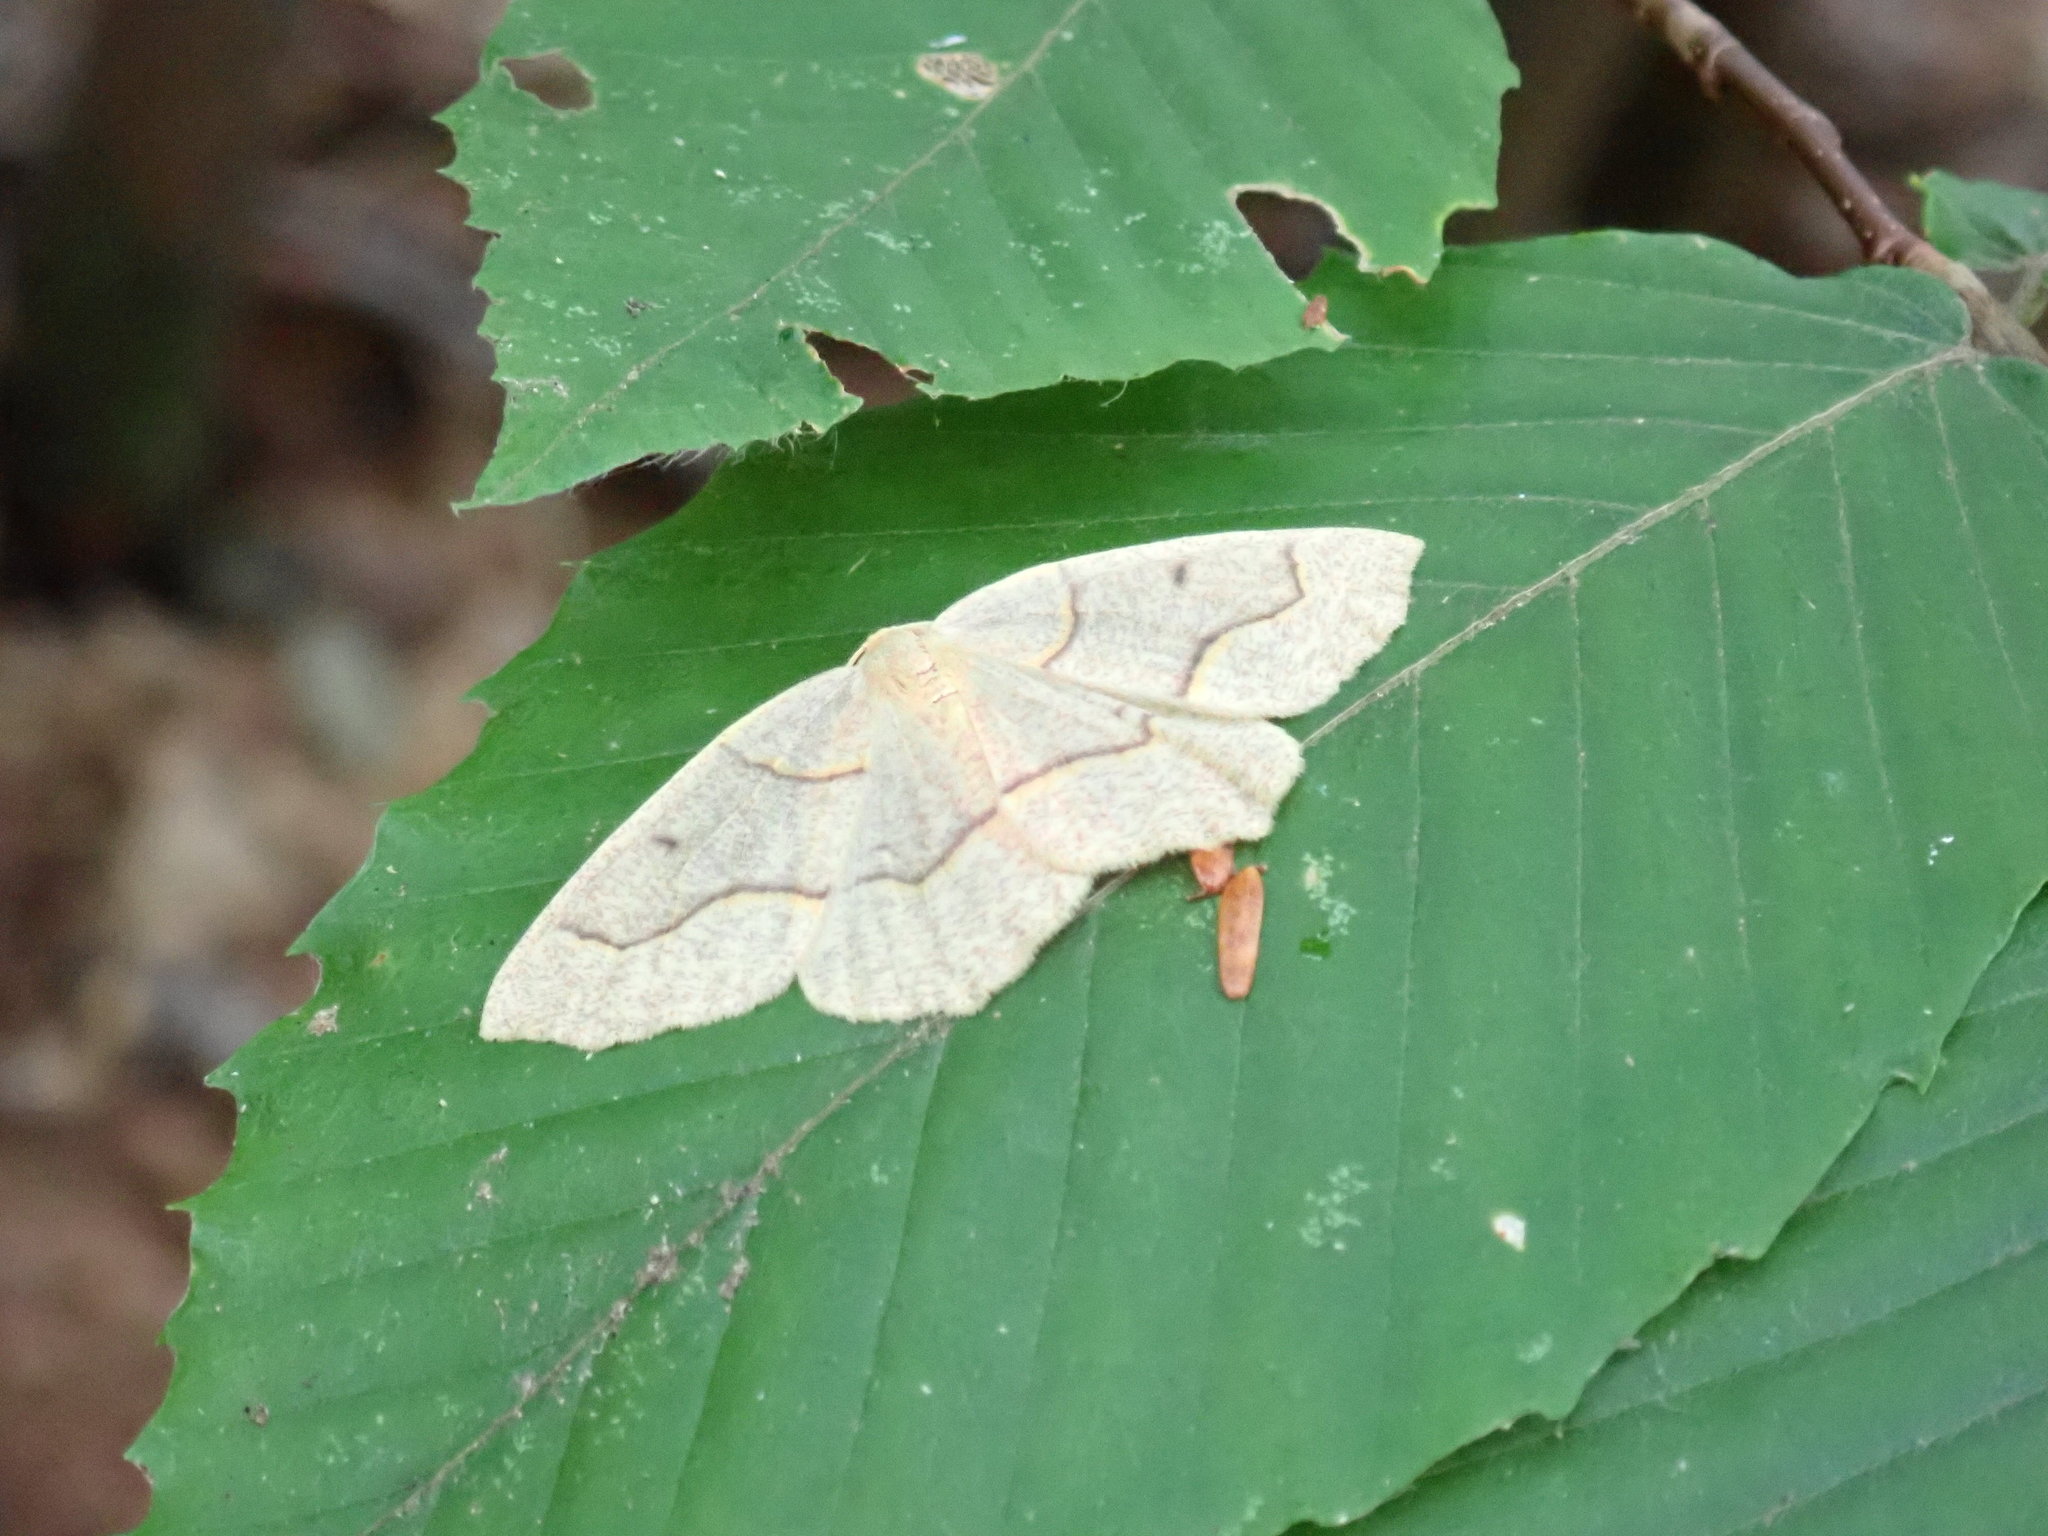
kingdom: Animalia
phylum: Arthropoda
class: Insecta
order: Lepidoptera
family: Geometridae
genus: Lambdina
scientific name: Lambdina fiscellaria
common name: Hemlock looper
